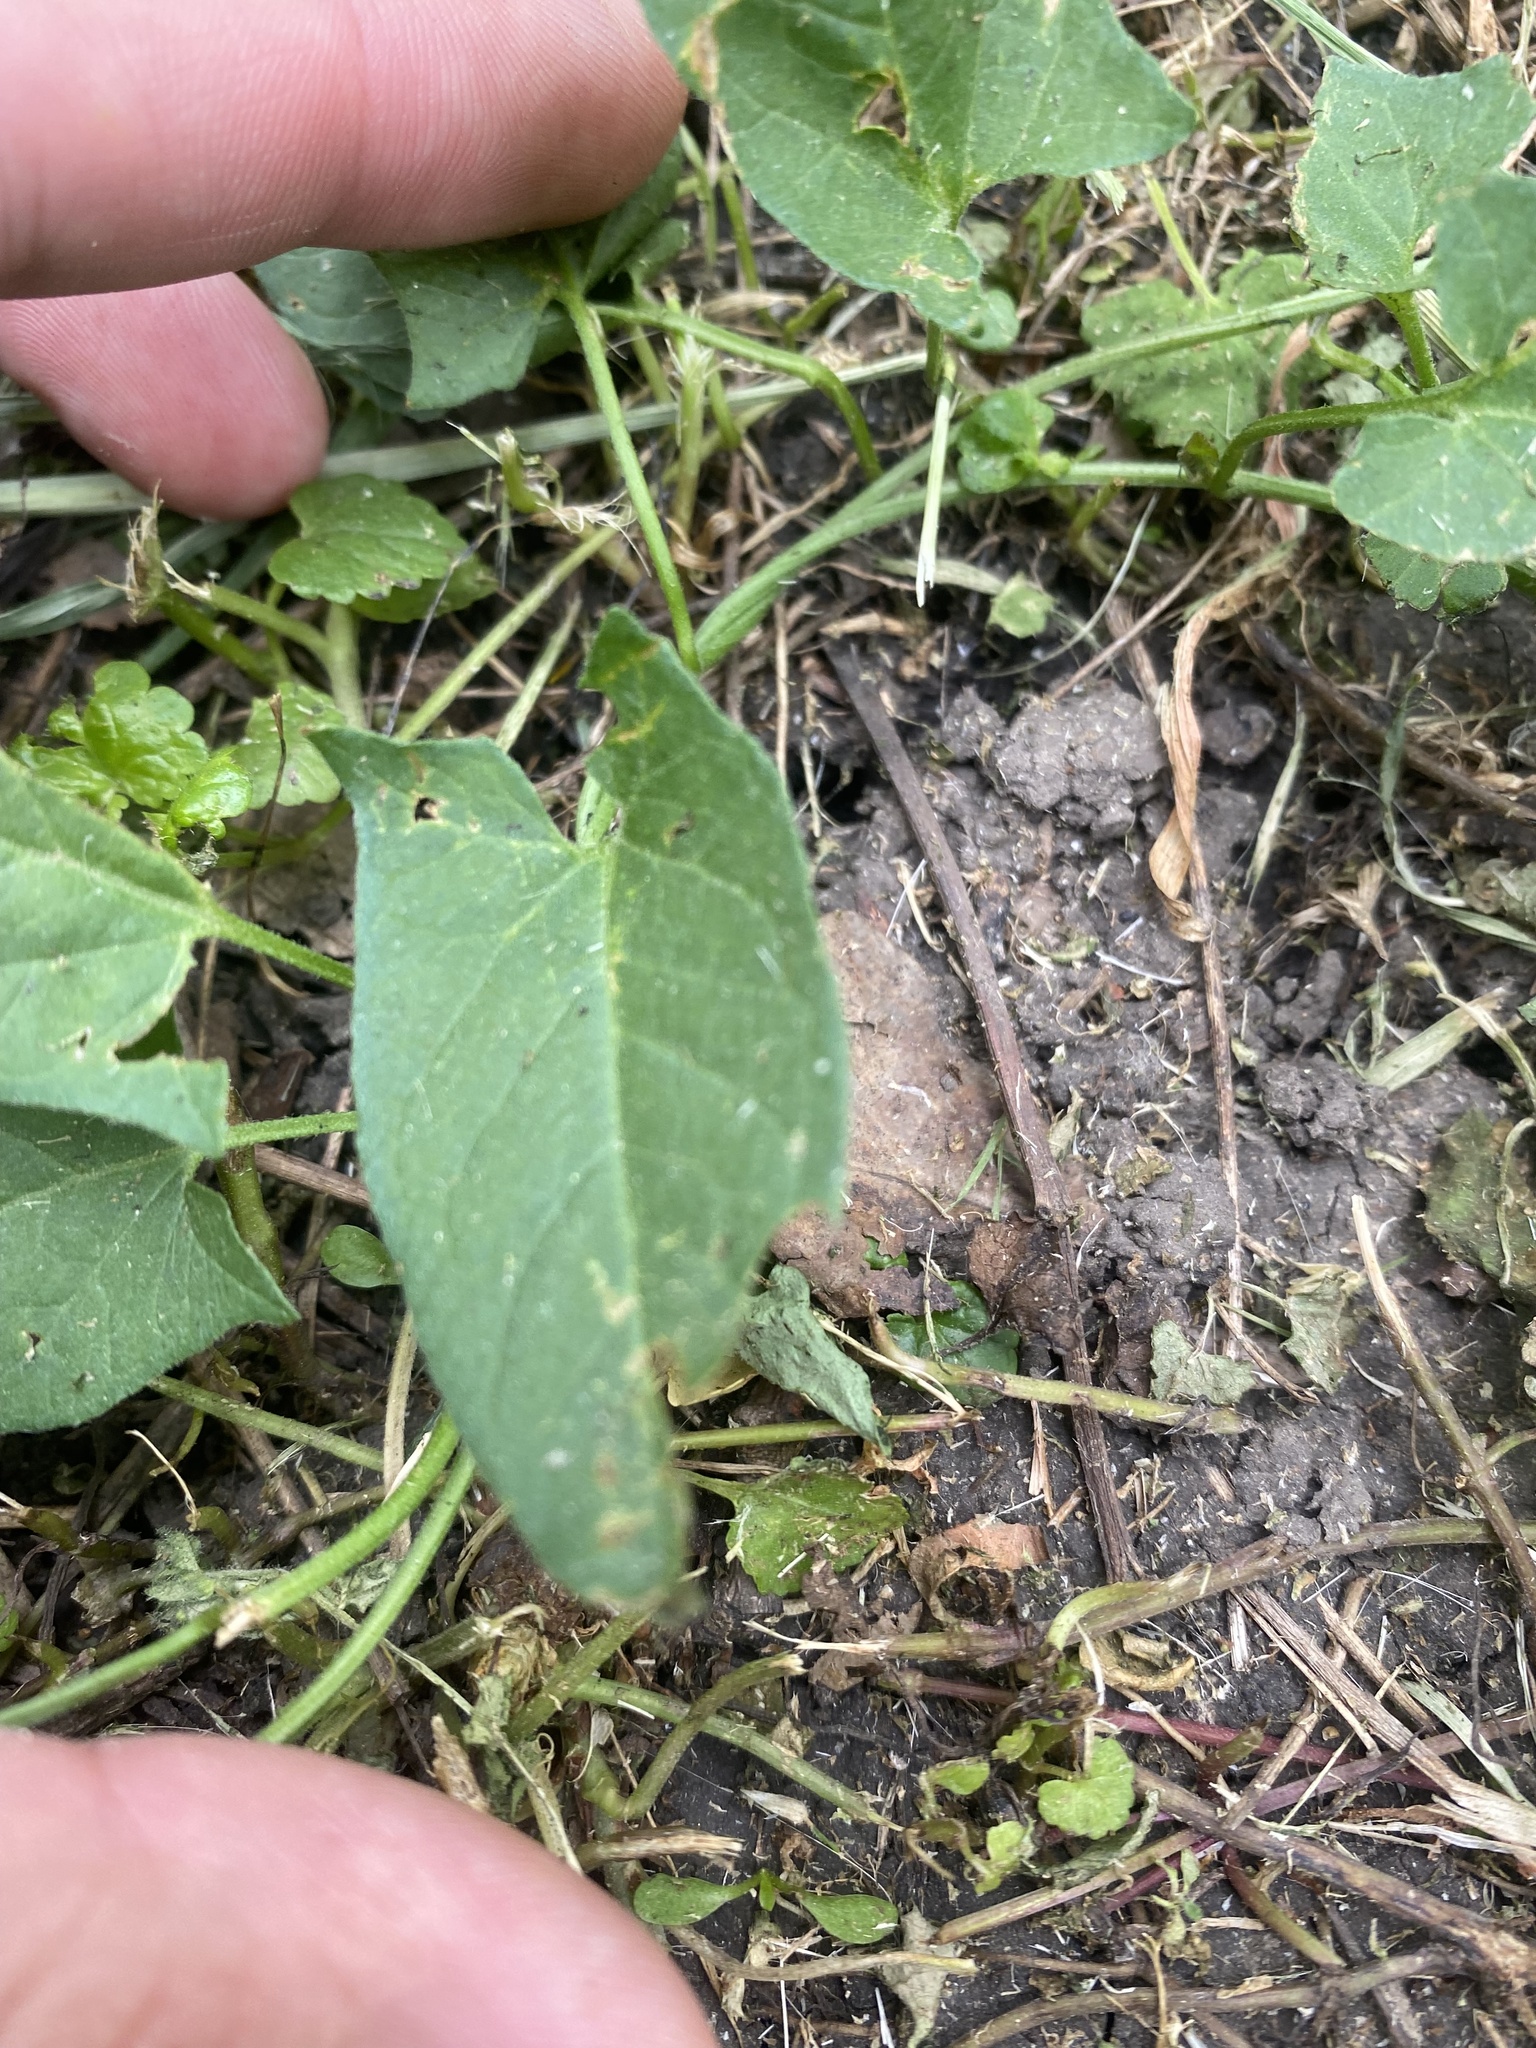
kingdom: Plantae
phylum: Tracheophyta
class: Magnoliopsida
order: Solanales
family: Convolvulaceae
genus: Convolvulus
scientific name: Convolvulus arvensis
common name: Field bindweed
